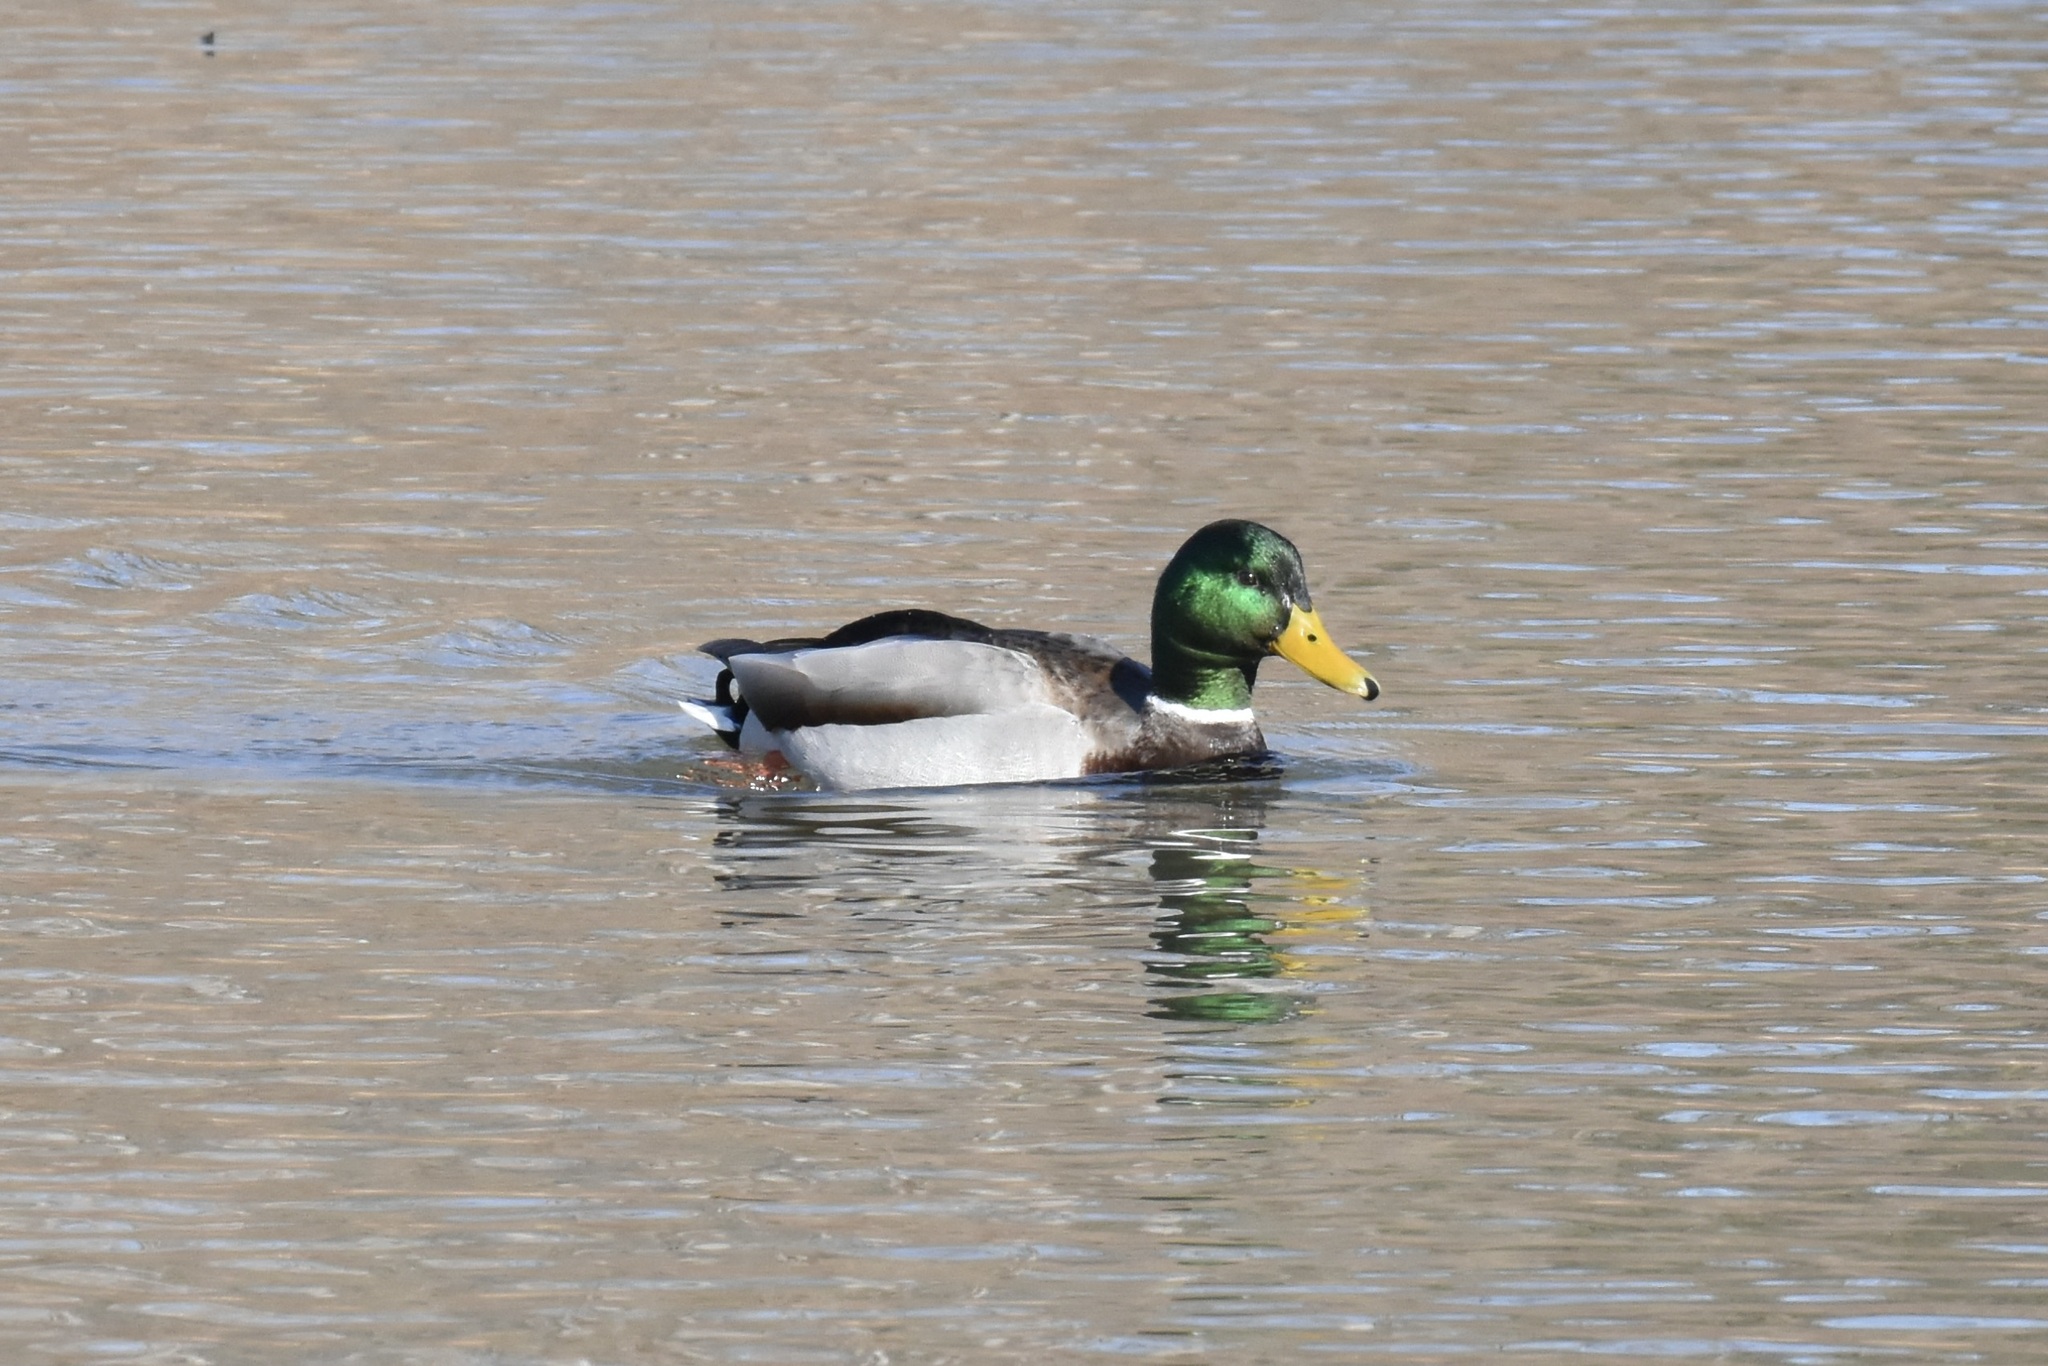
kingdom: Animalia
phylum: Chordata
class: Aves
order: Anseriformes
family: Anatidae
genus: Anas
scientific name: Anas platyrhynchos
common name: Mallard
